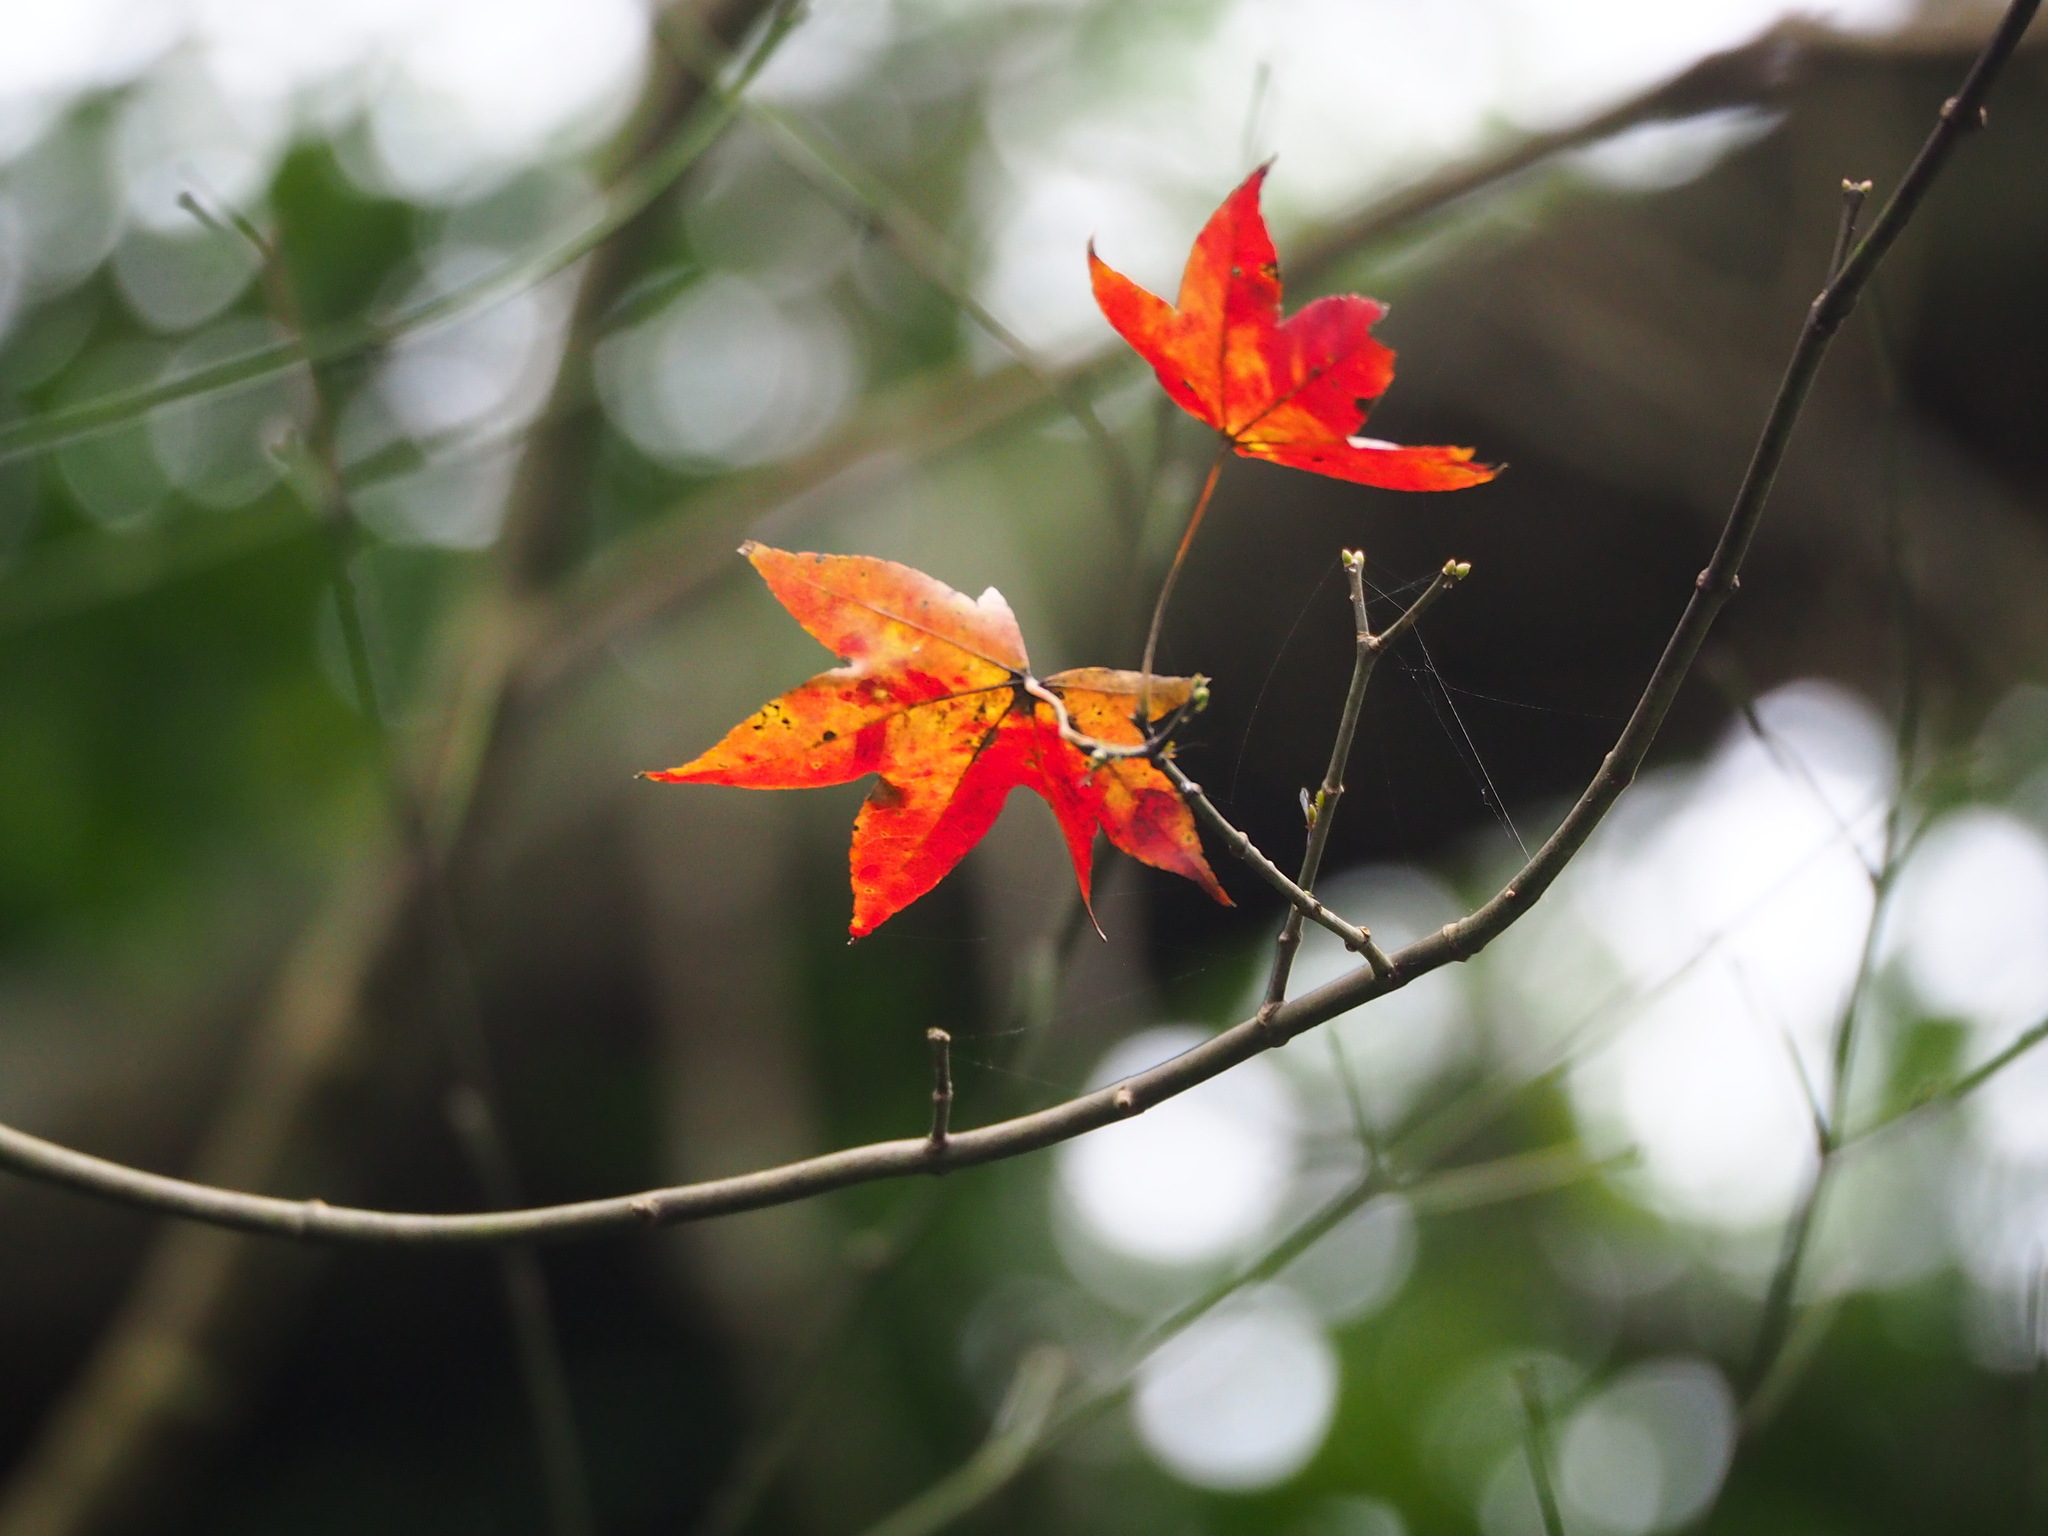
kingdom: Plantae
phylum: Tracheophyta
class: Magnoliopsida
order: Sapindales
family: Sapindaceae
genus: Acer
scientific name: Acer serrulatum
